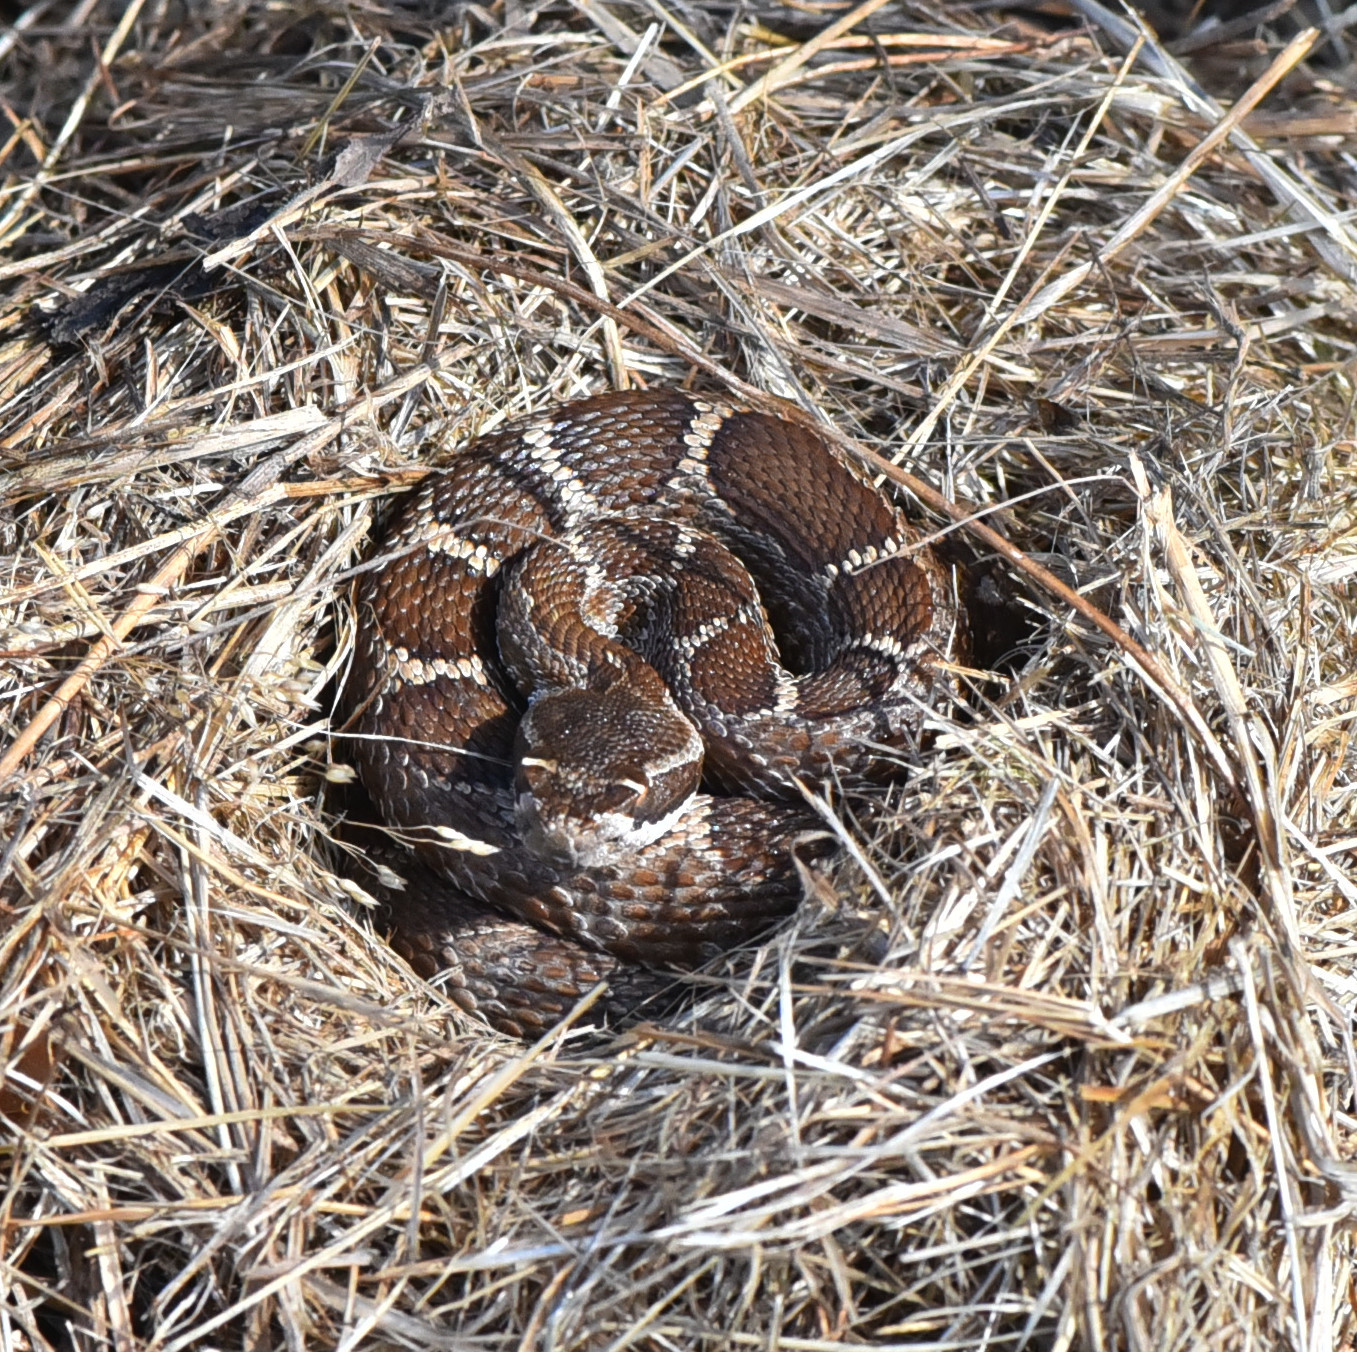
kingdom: Animalia
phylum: Chordata
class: Squamata
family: Viperidae
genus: Crotalus
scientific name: Crotalus oreganus
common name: Abyssus
